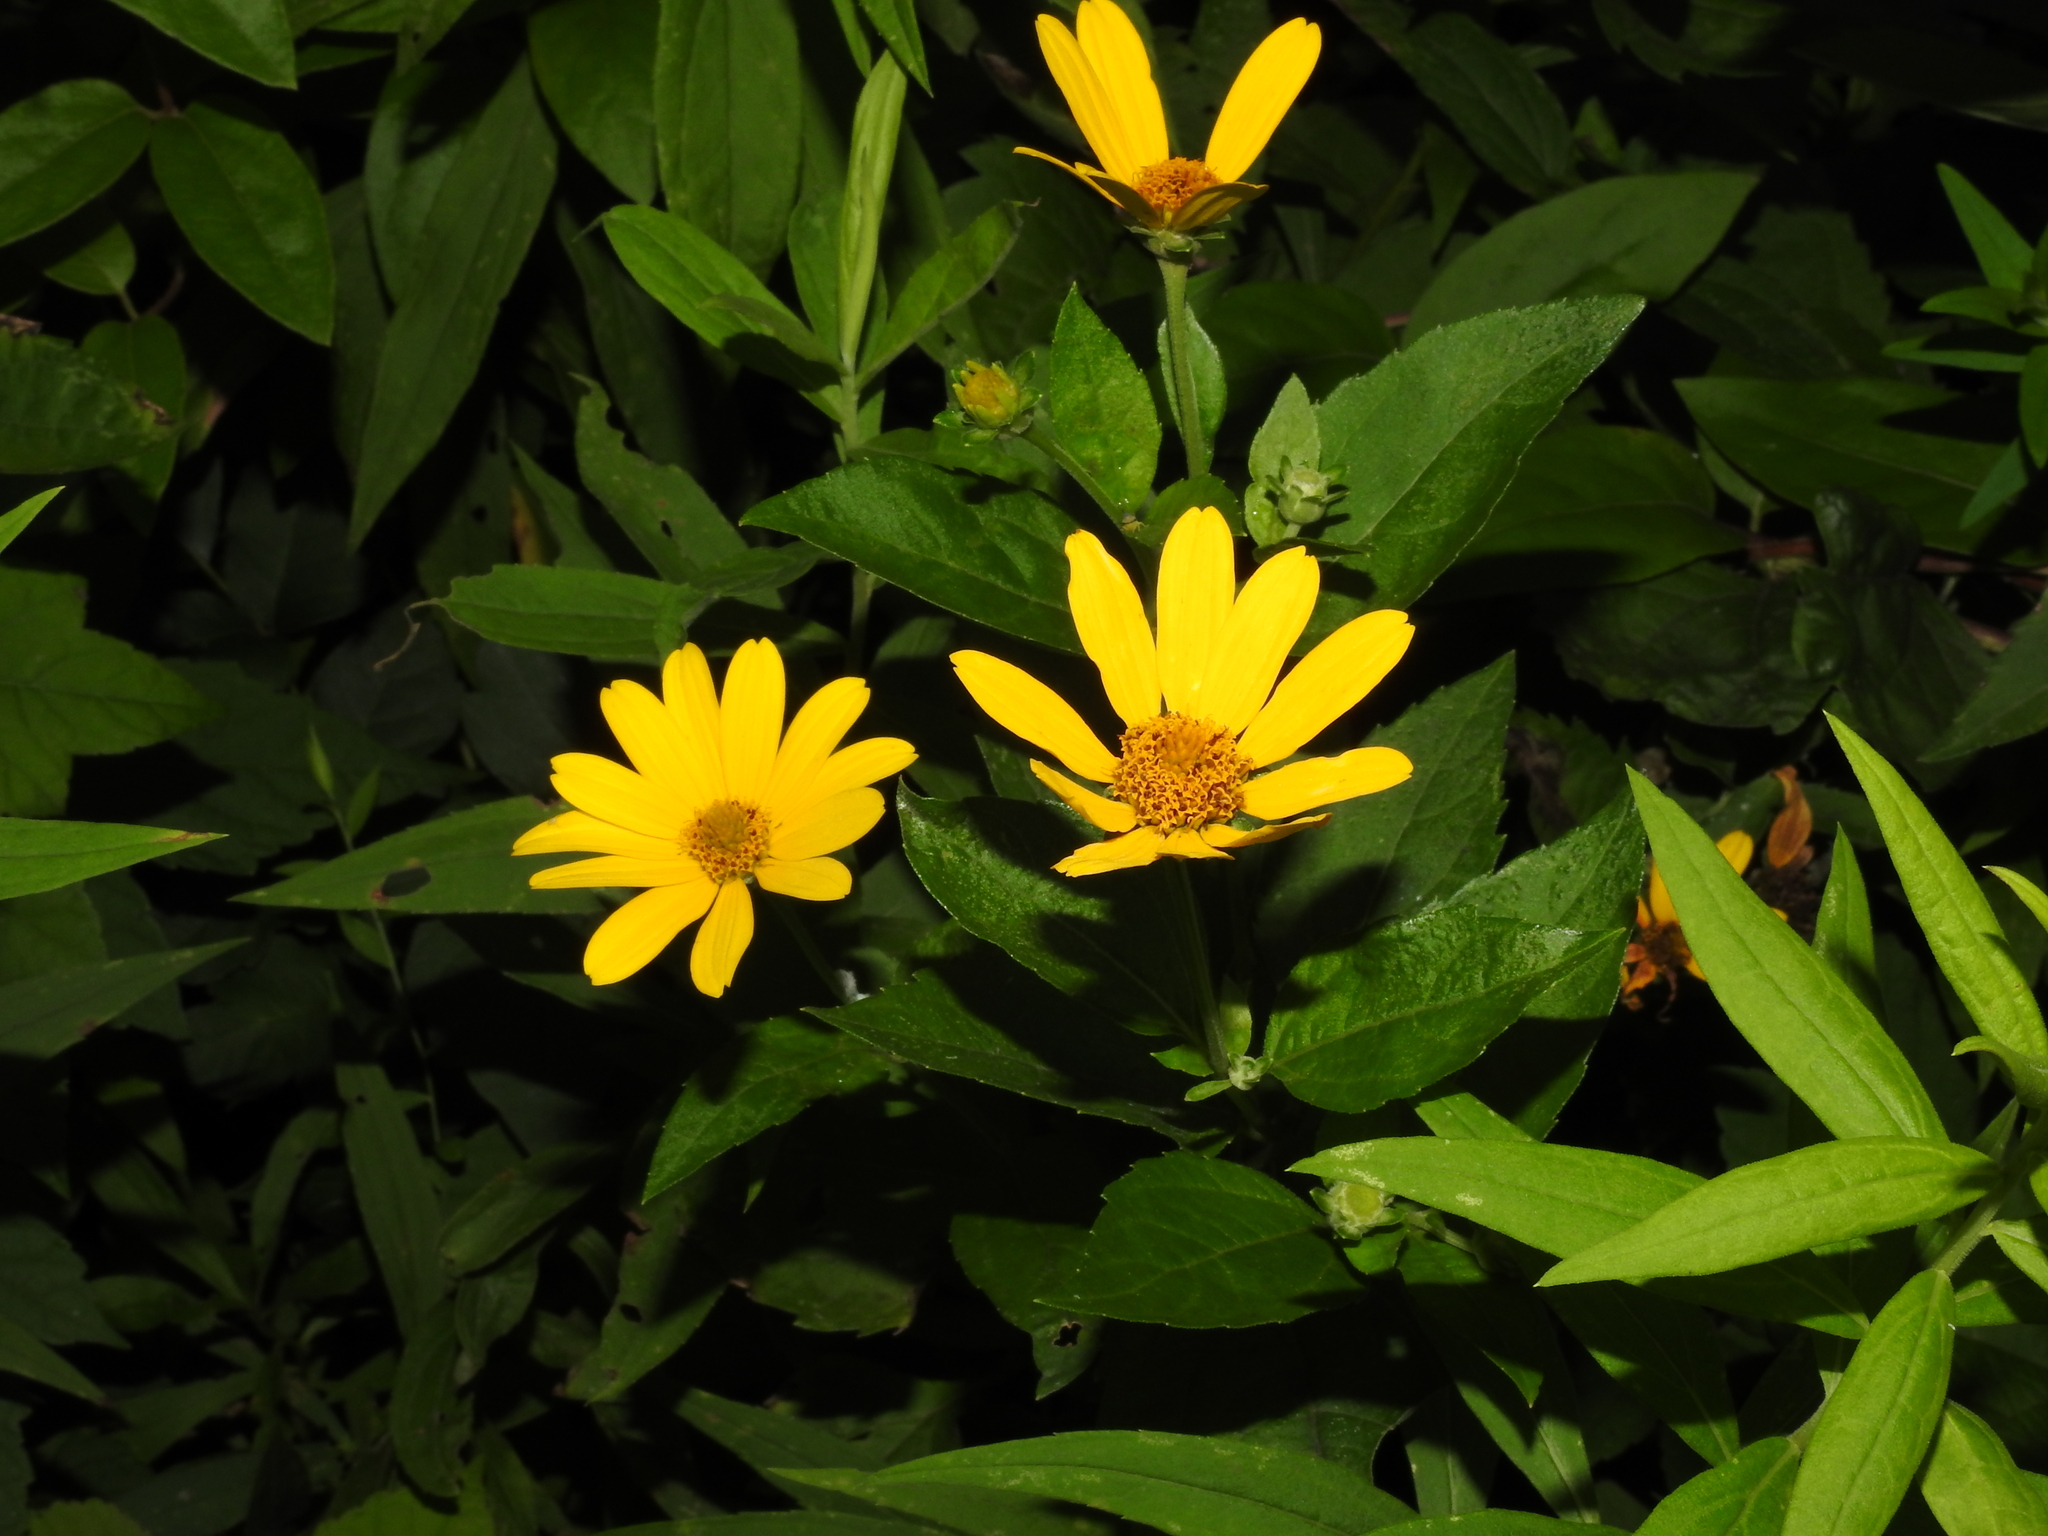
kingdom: Plantae
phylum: Tracheophyta
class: Magnoliopsida
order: Asterales
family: Asteraceae
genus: Heliopsis
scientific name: Heliopsis helianthoides
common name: False sunflower
